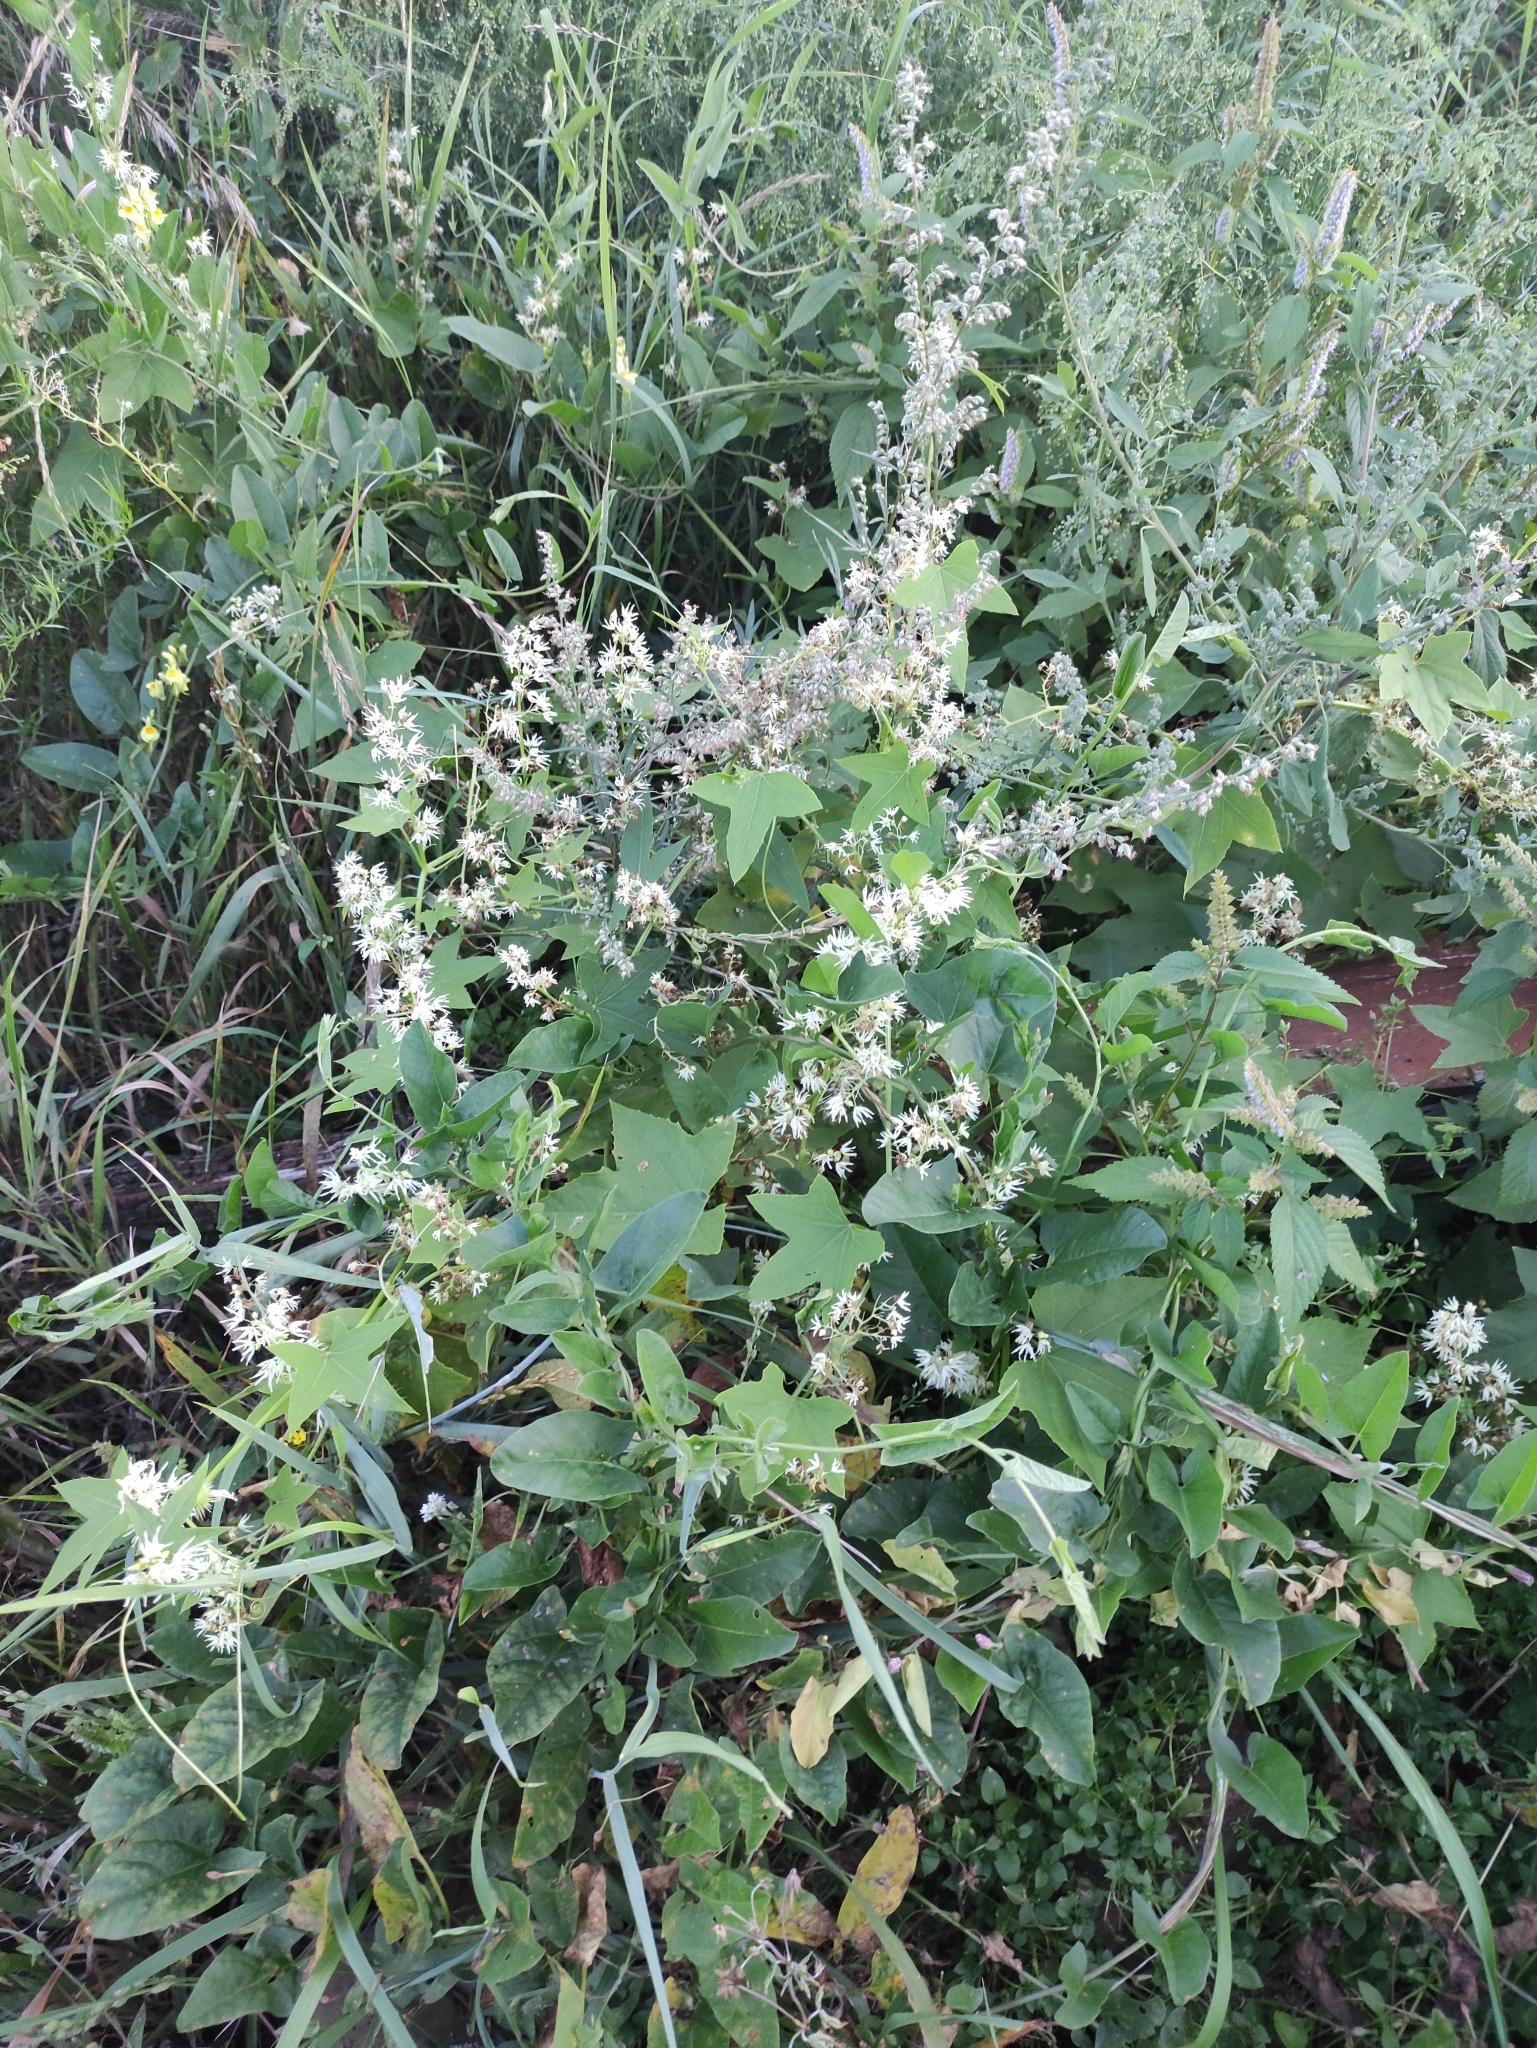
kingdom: Plantae
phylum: Tracheophyta
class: Magnoliopsida
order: Cucurbitales
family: Cucurbitaceae
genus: Echinocystis
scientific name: Echinocystis lobata
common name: Wild cucumber
